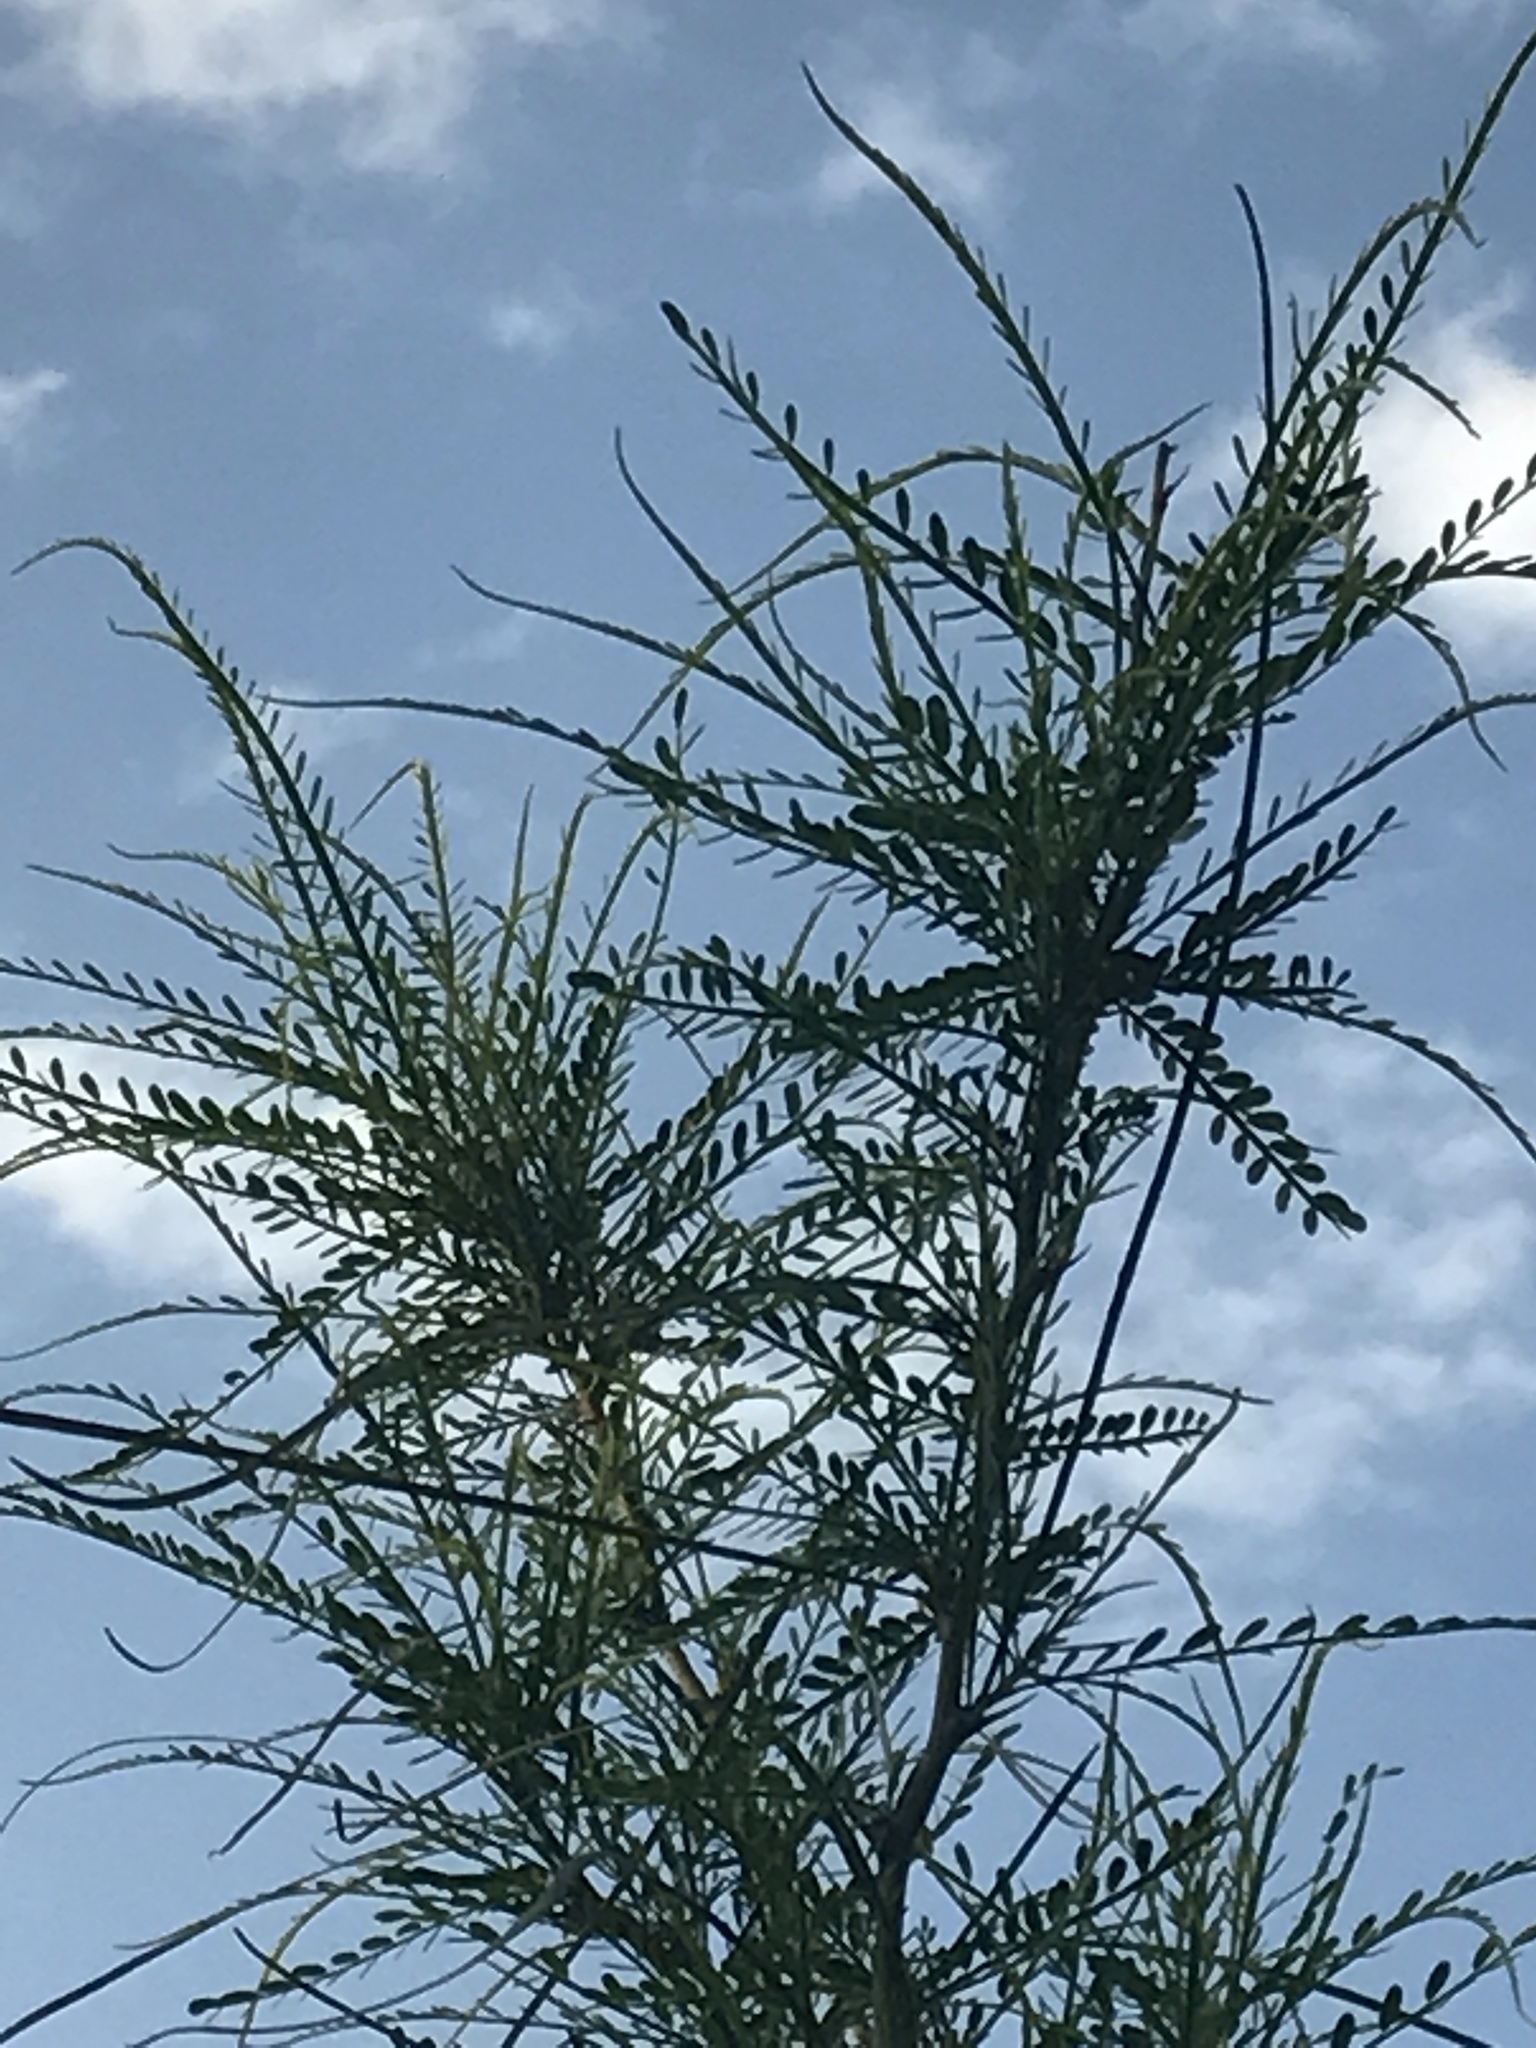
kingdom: Plantae
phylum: Tracheophyta
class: Magnoliopsida
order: Fabales
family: Fabaceae
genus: Parkinsonia
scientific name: Parkinsonia aculeata
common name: Jerusalem thorn
